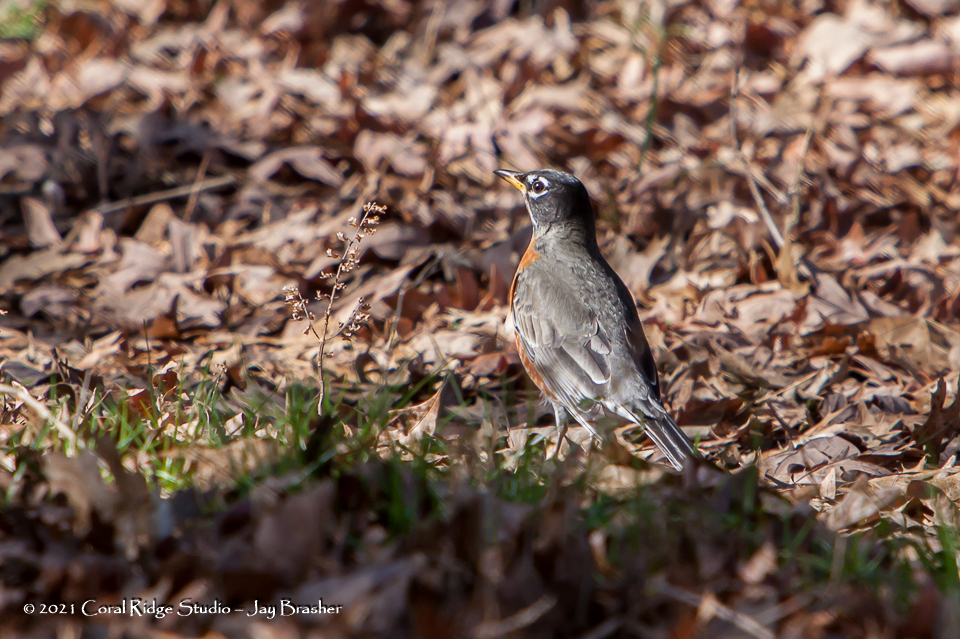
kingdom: Animalia
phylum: Chordata
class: Aves
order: Passeriformes
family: Turdidae
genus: Turdus
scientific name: Turdus migratorius
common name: American robin
